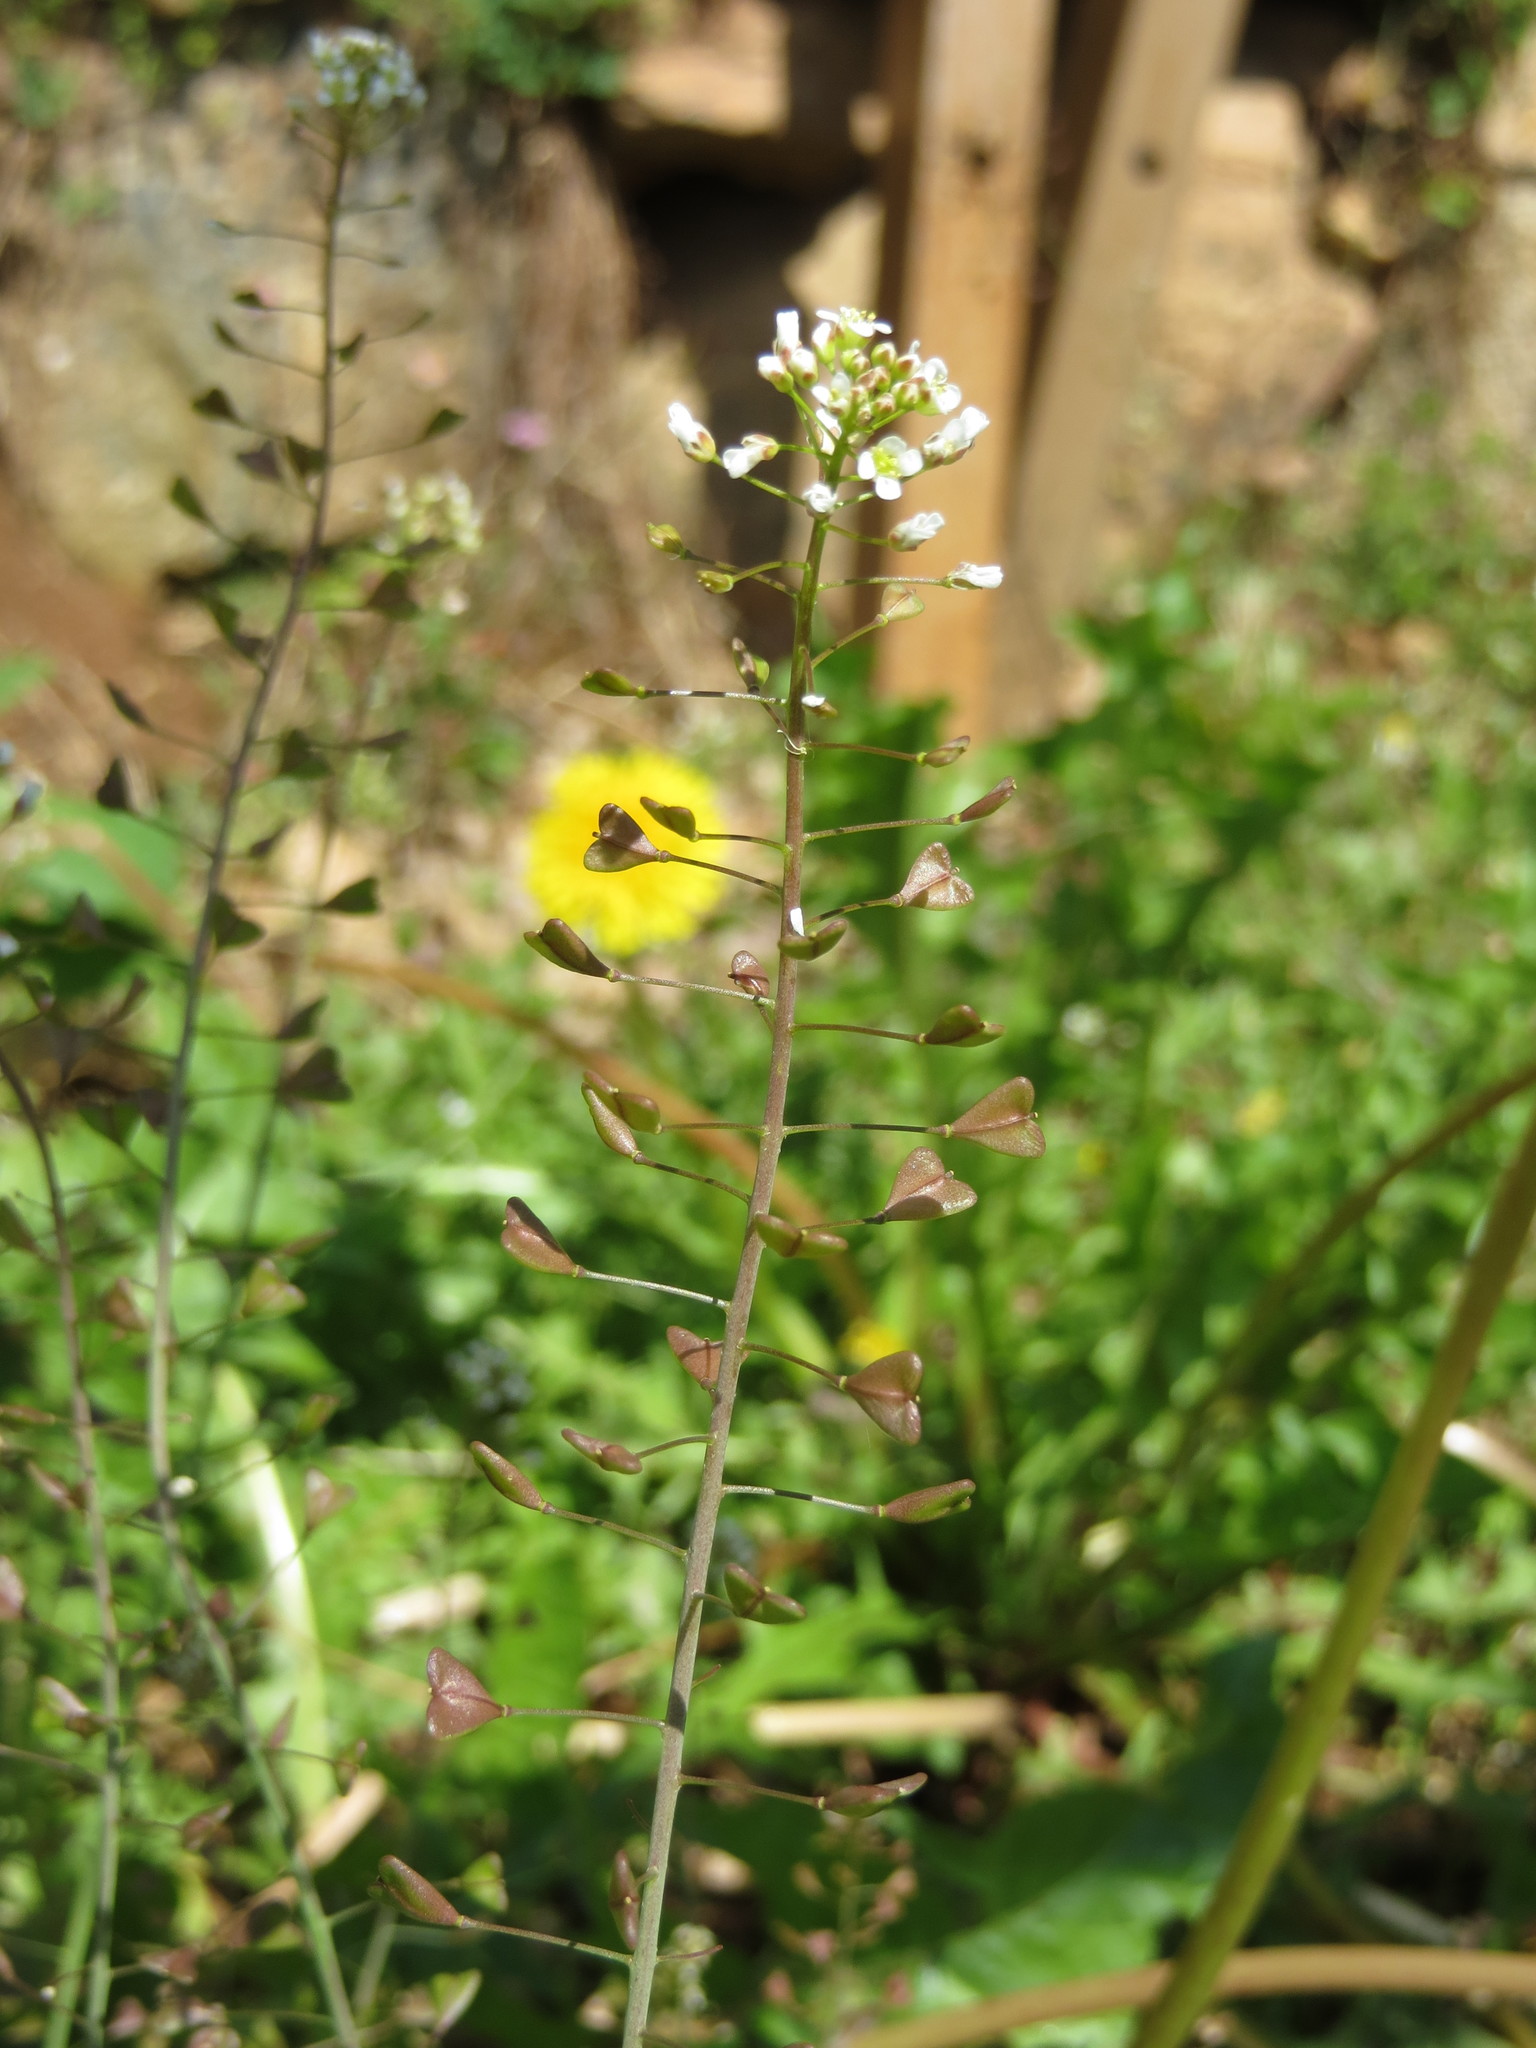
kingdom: Plantae
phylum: Tracheophyta
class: Magnoliopsida
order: Brassicales
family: Brassicaceae
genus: Capsella
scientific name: Capsella bursa-pastoris
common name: Shepherd's purse
